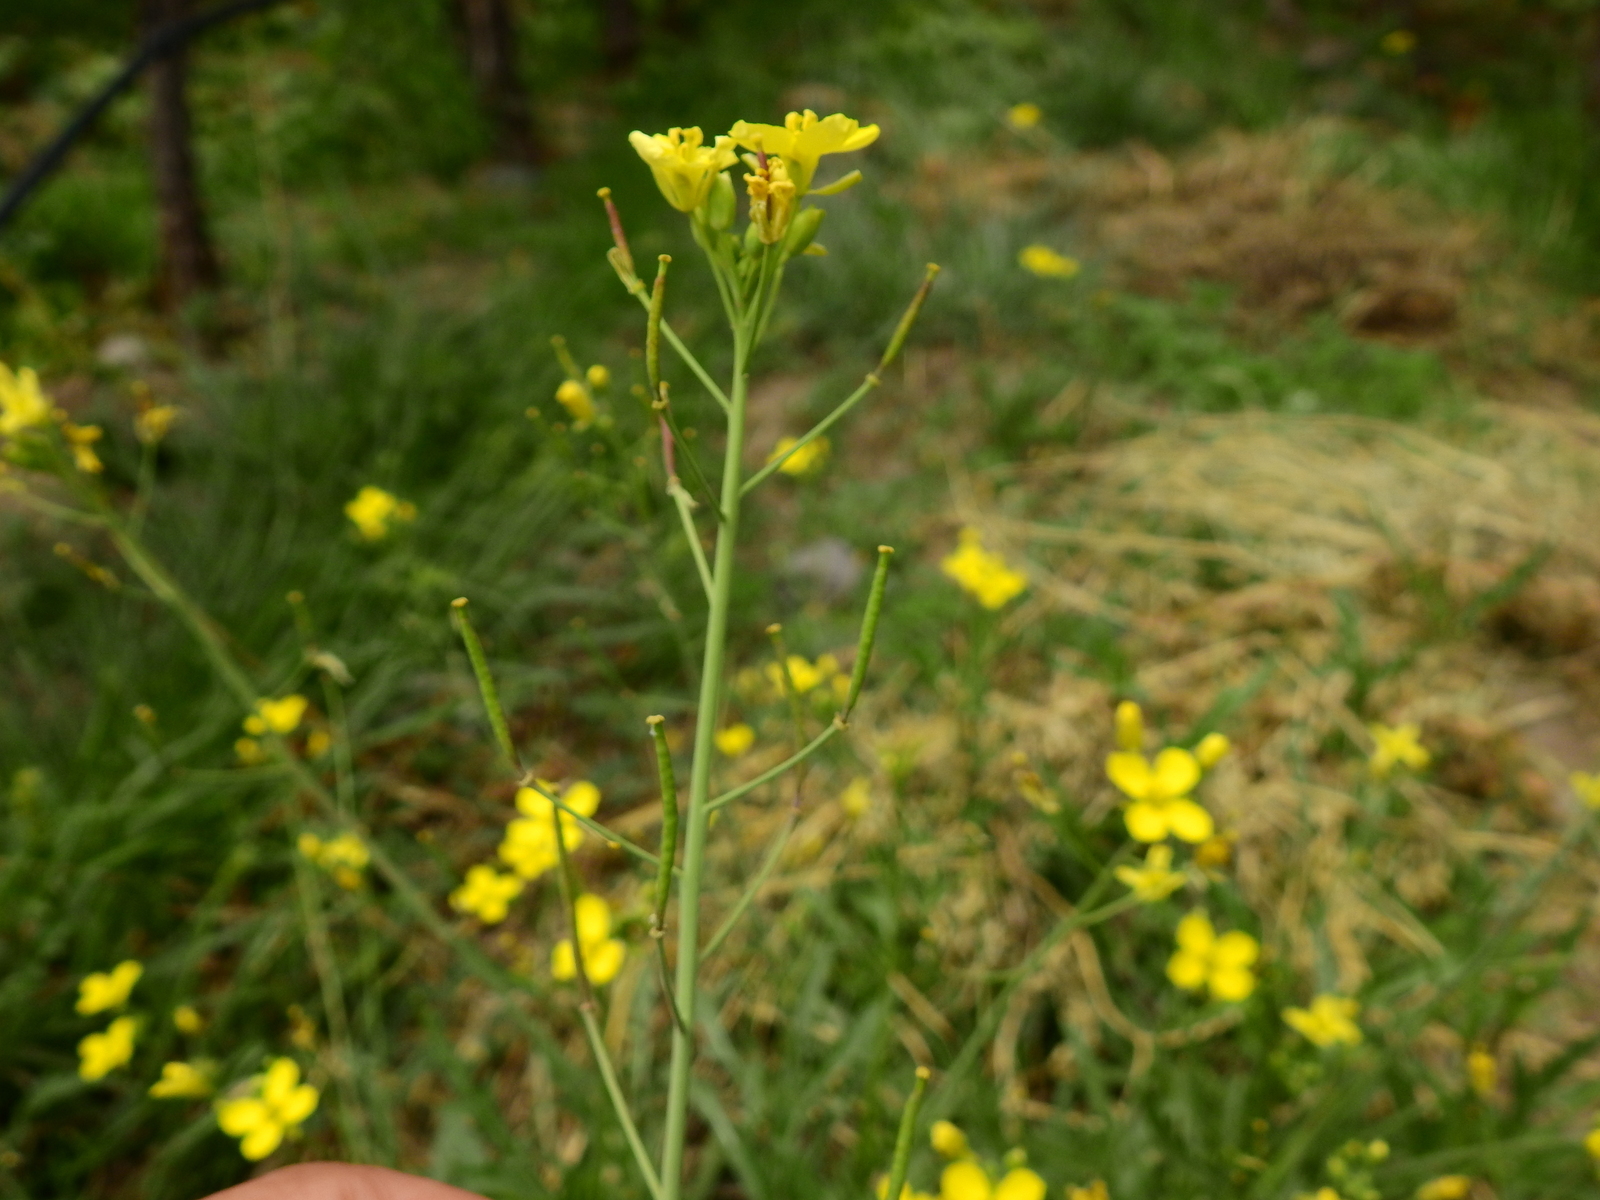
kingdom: Plantae
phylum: Tracheophyta
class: Magnoliopsida
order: Brassicales
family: Brassicaceae
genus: Diplotaxis
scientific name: Diplotaxis tenuifolia
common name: Perennial wall-rocket
